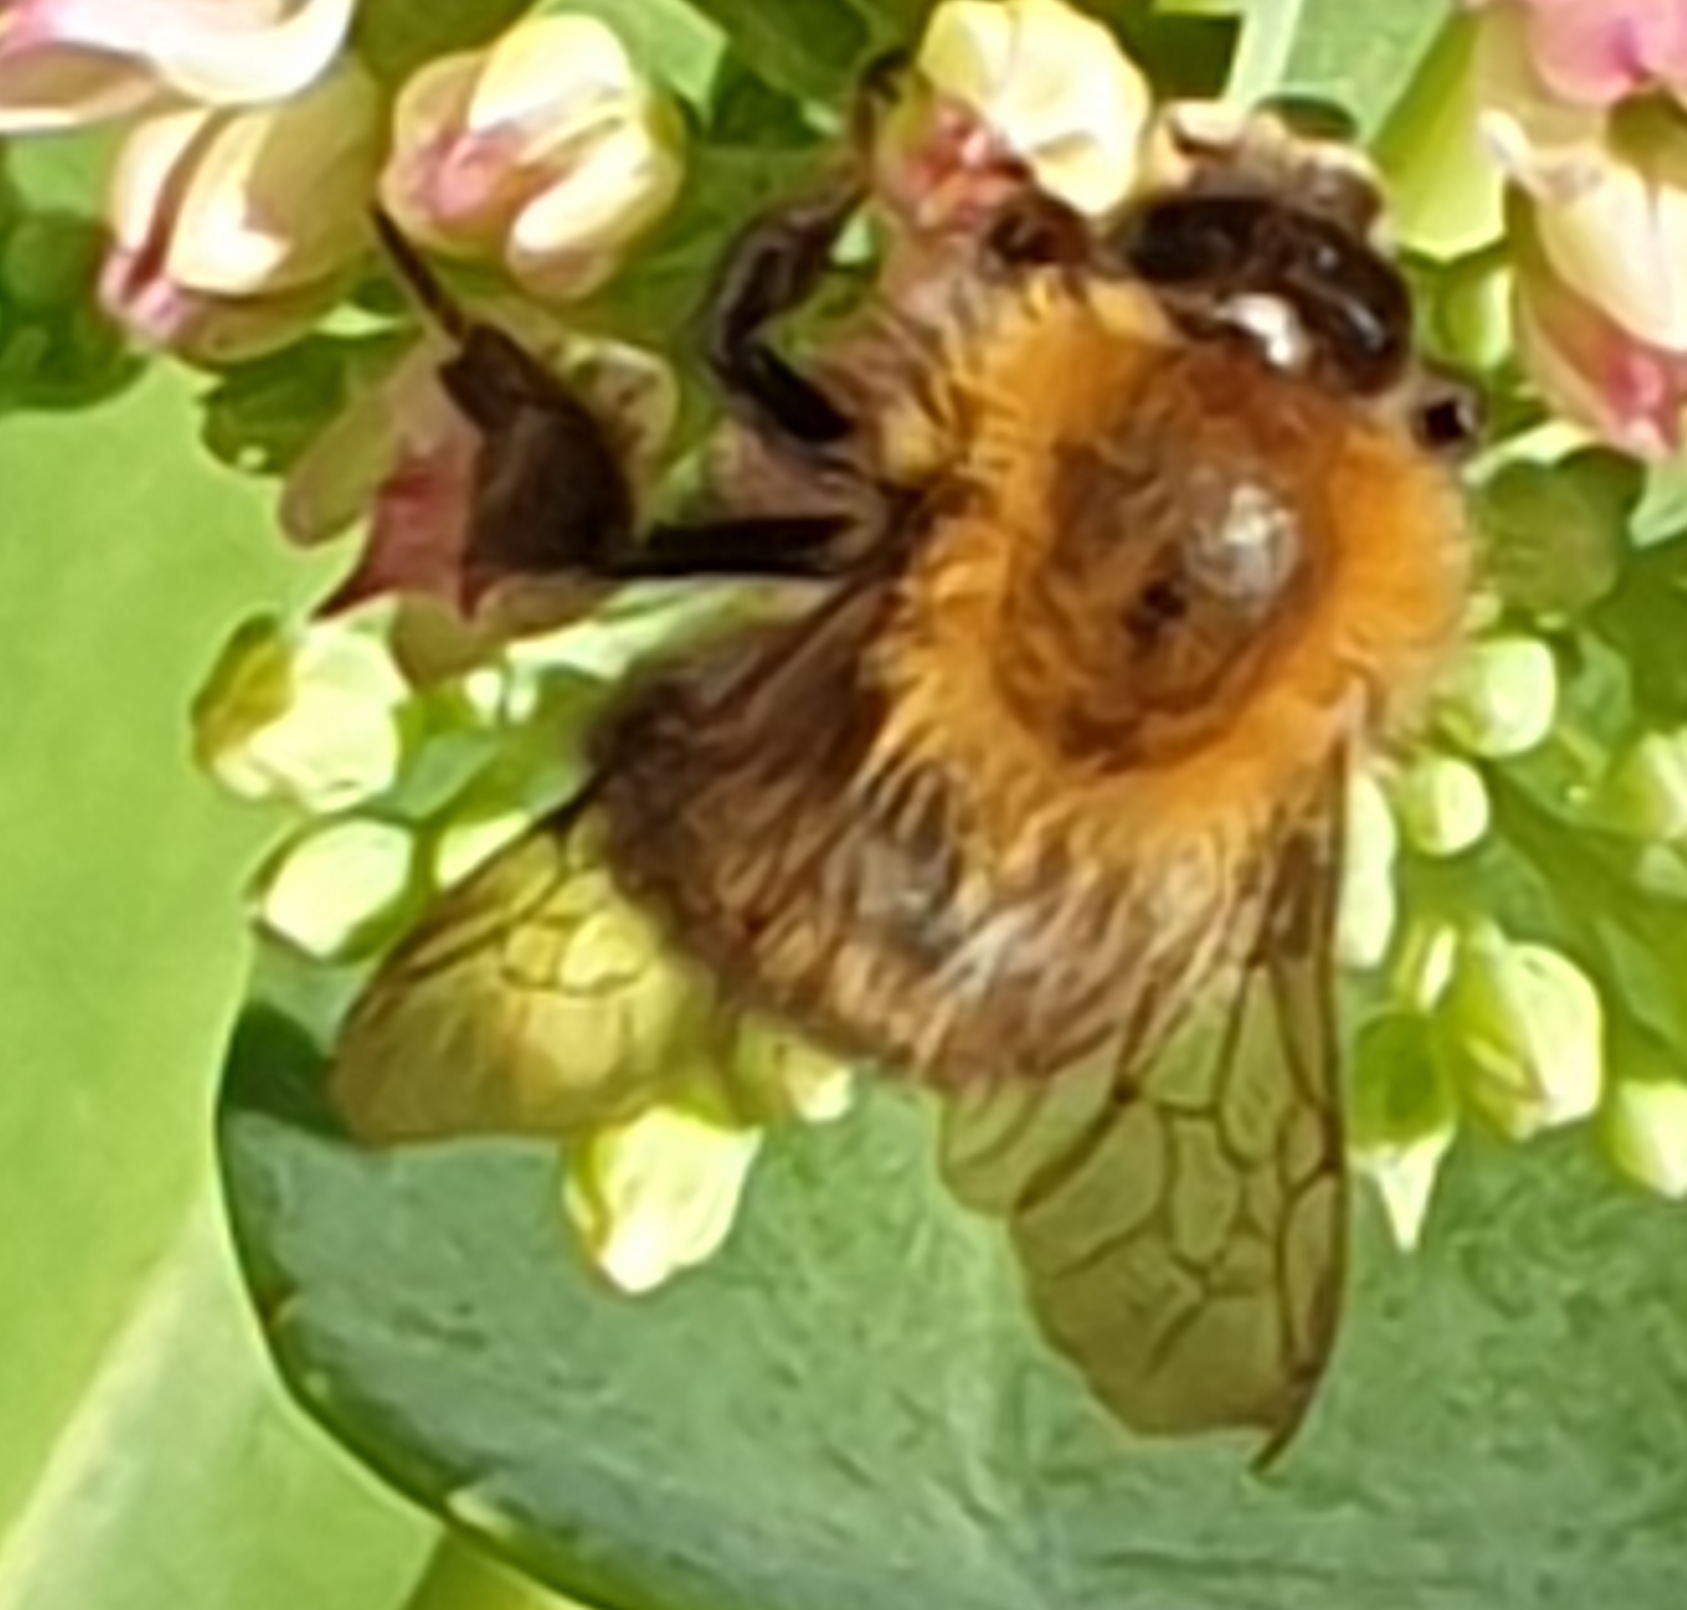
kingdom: Animalia
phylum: Arthropoda
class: Insecta
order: Hymenoptera
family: Apidae
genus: Bombus
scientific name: Bombus pascuorum
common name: Common carder bee
